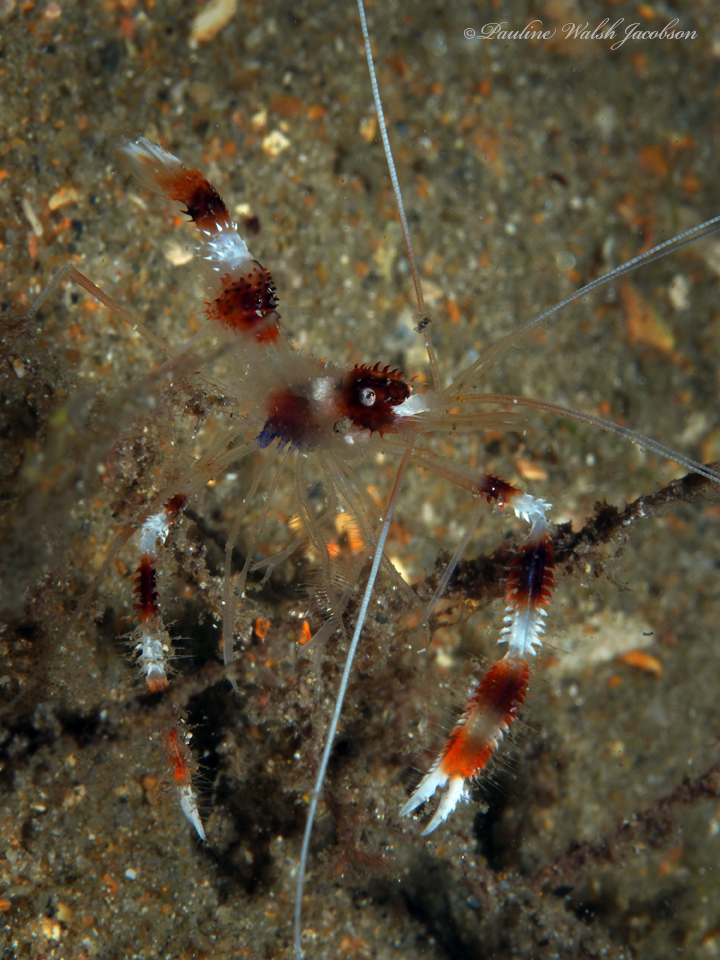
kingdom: Animalia
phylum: Arthropoda
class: Malacostraca
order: Decapoda
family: Stenopodidae
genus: Stenopus
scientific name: Stenopus hispidus
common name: Banded coral shrimp
